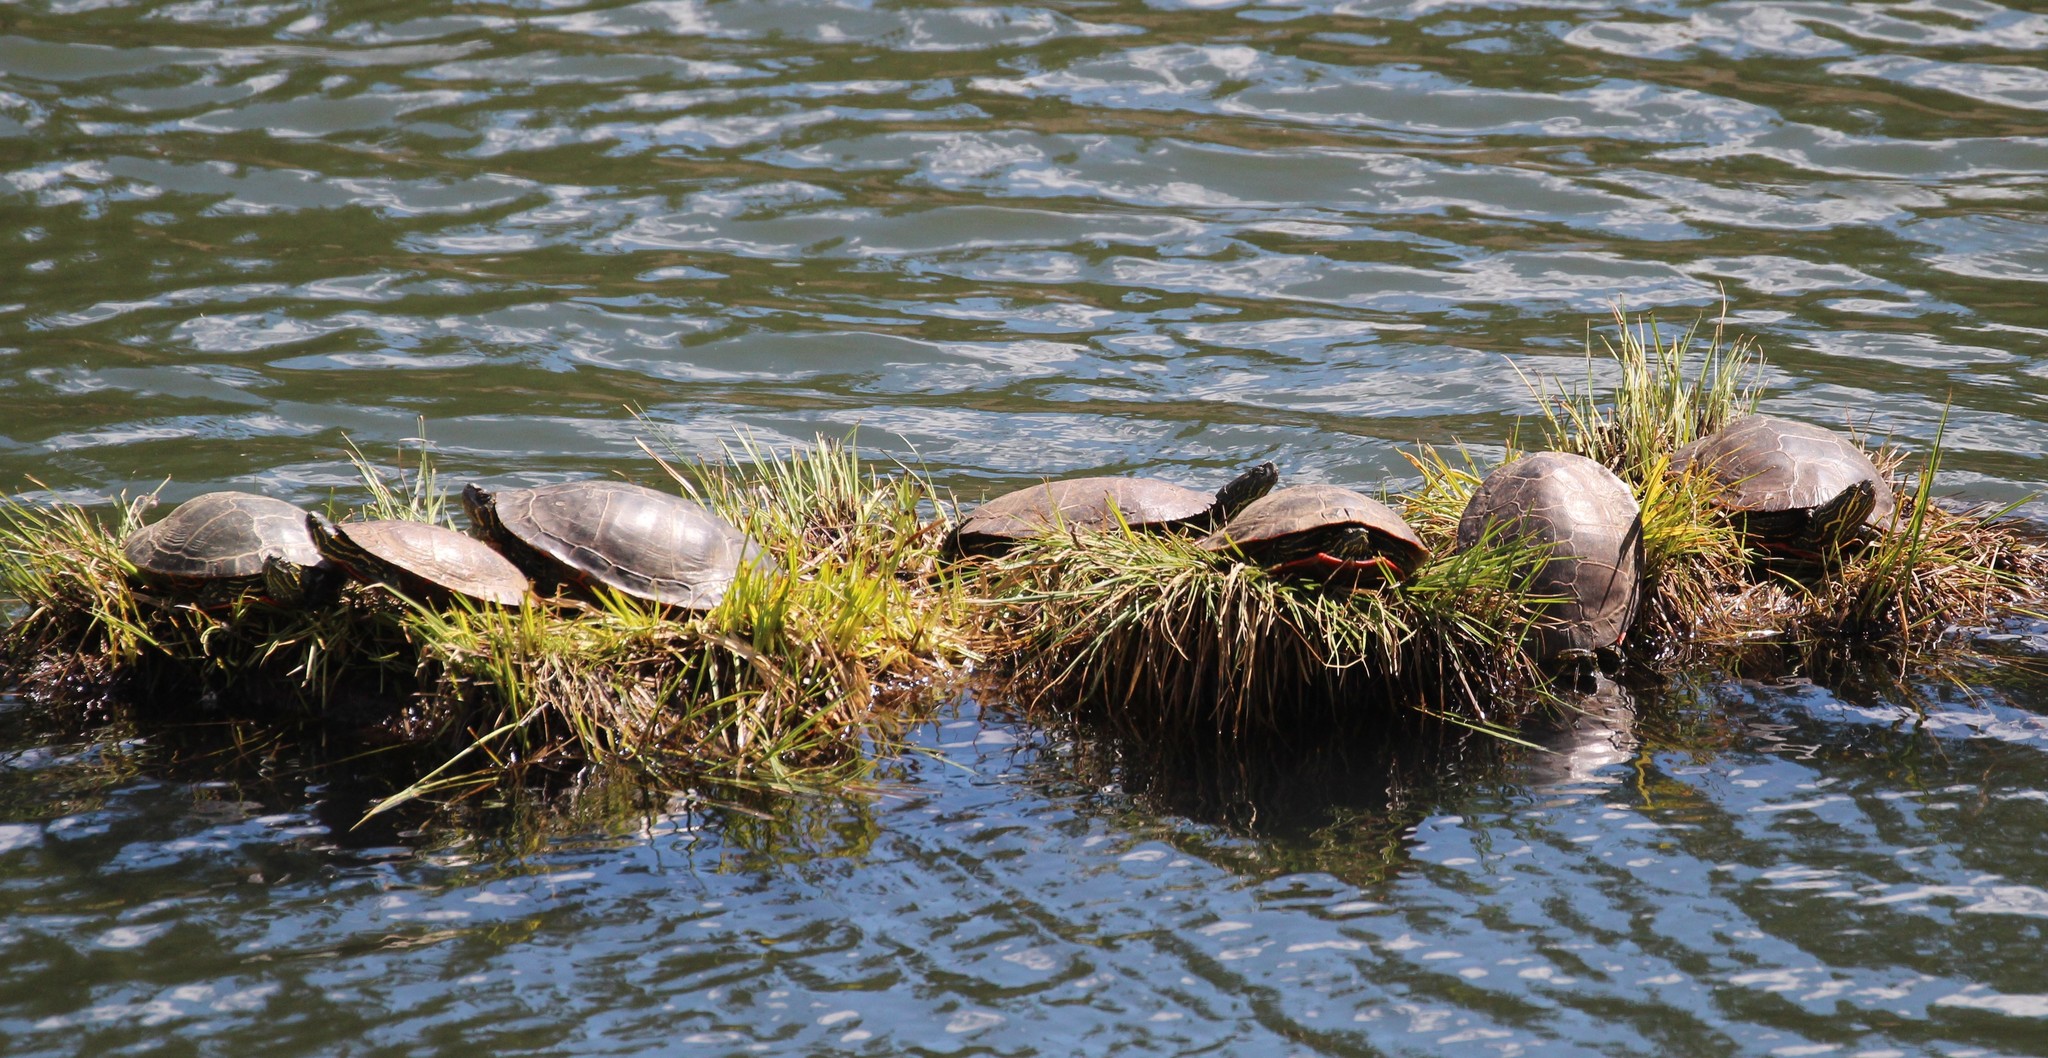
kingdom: Animalia
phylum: Chordata
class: Testudines
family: Emydidae
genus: Chrysemys
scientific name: Chrysemys picta
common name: Painted turtle
